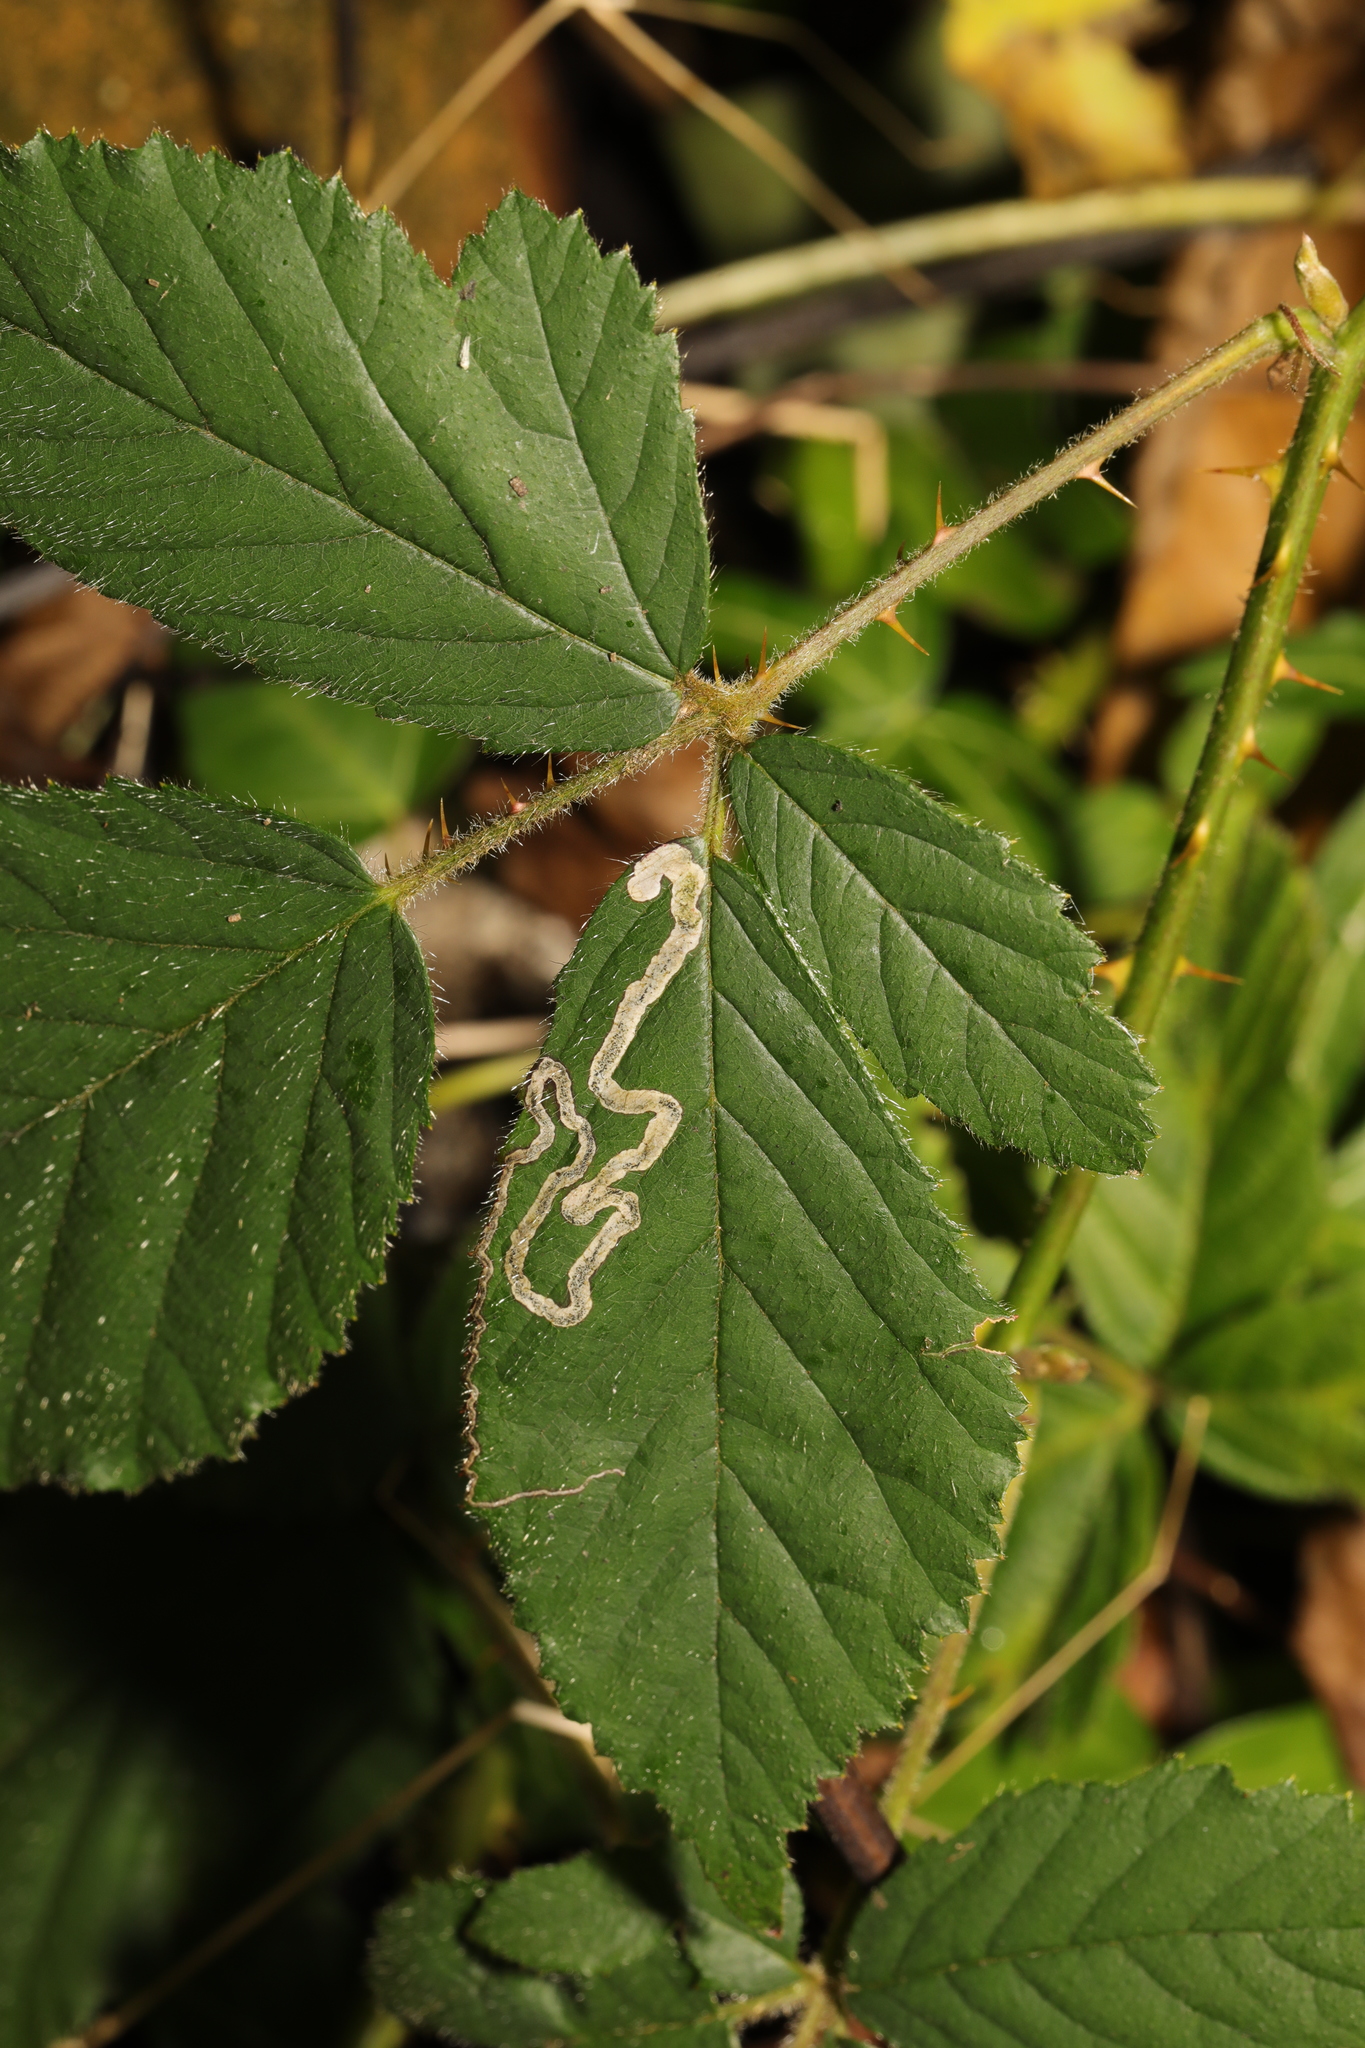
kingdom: Animalia
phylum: Arthropoda
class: Insecta
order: Lepidoptera
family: Nepticulidae
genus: Stigmella
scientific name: Stigmella aurella
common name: Golden pigmy
